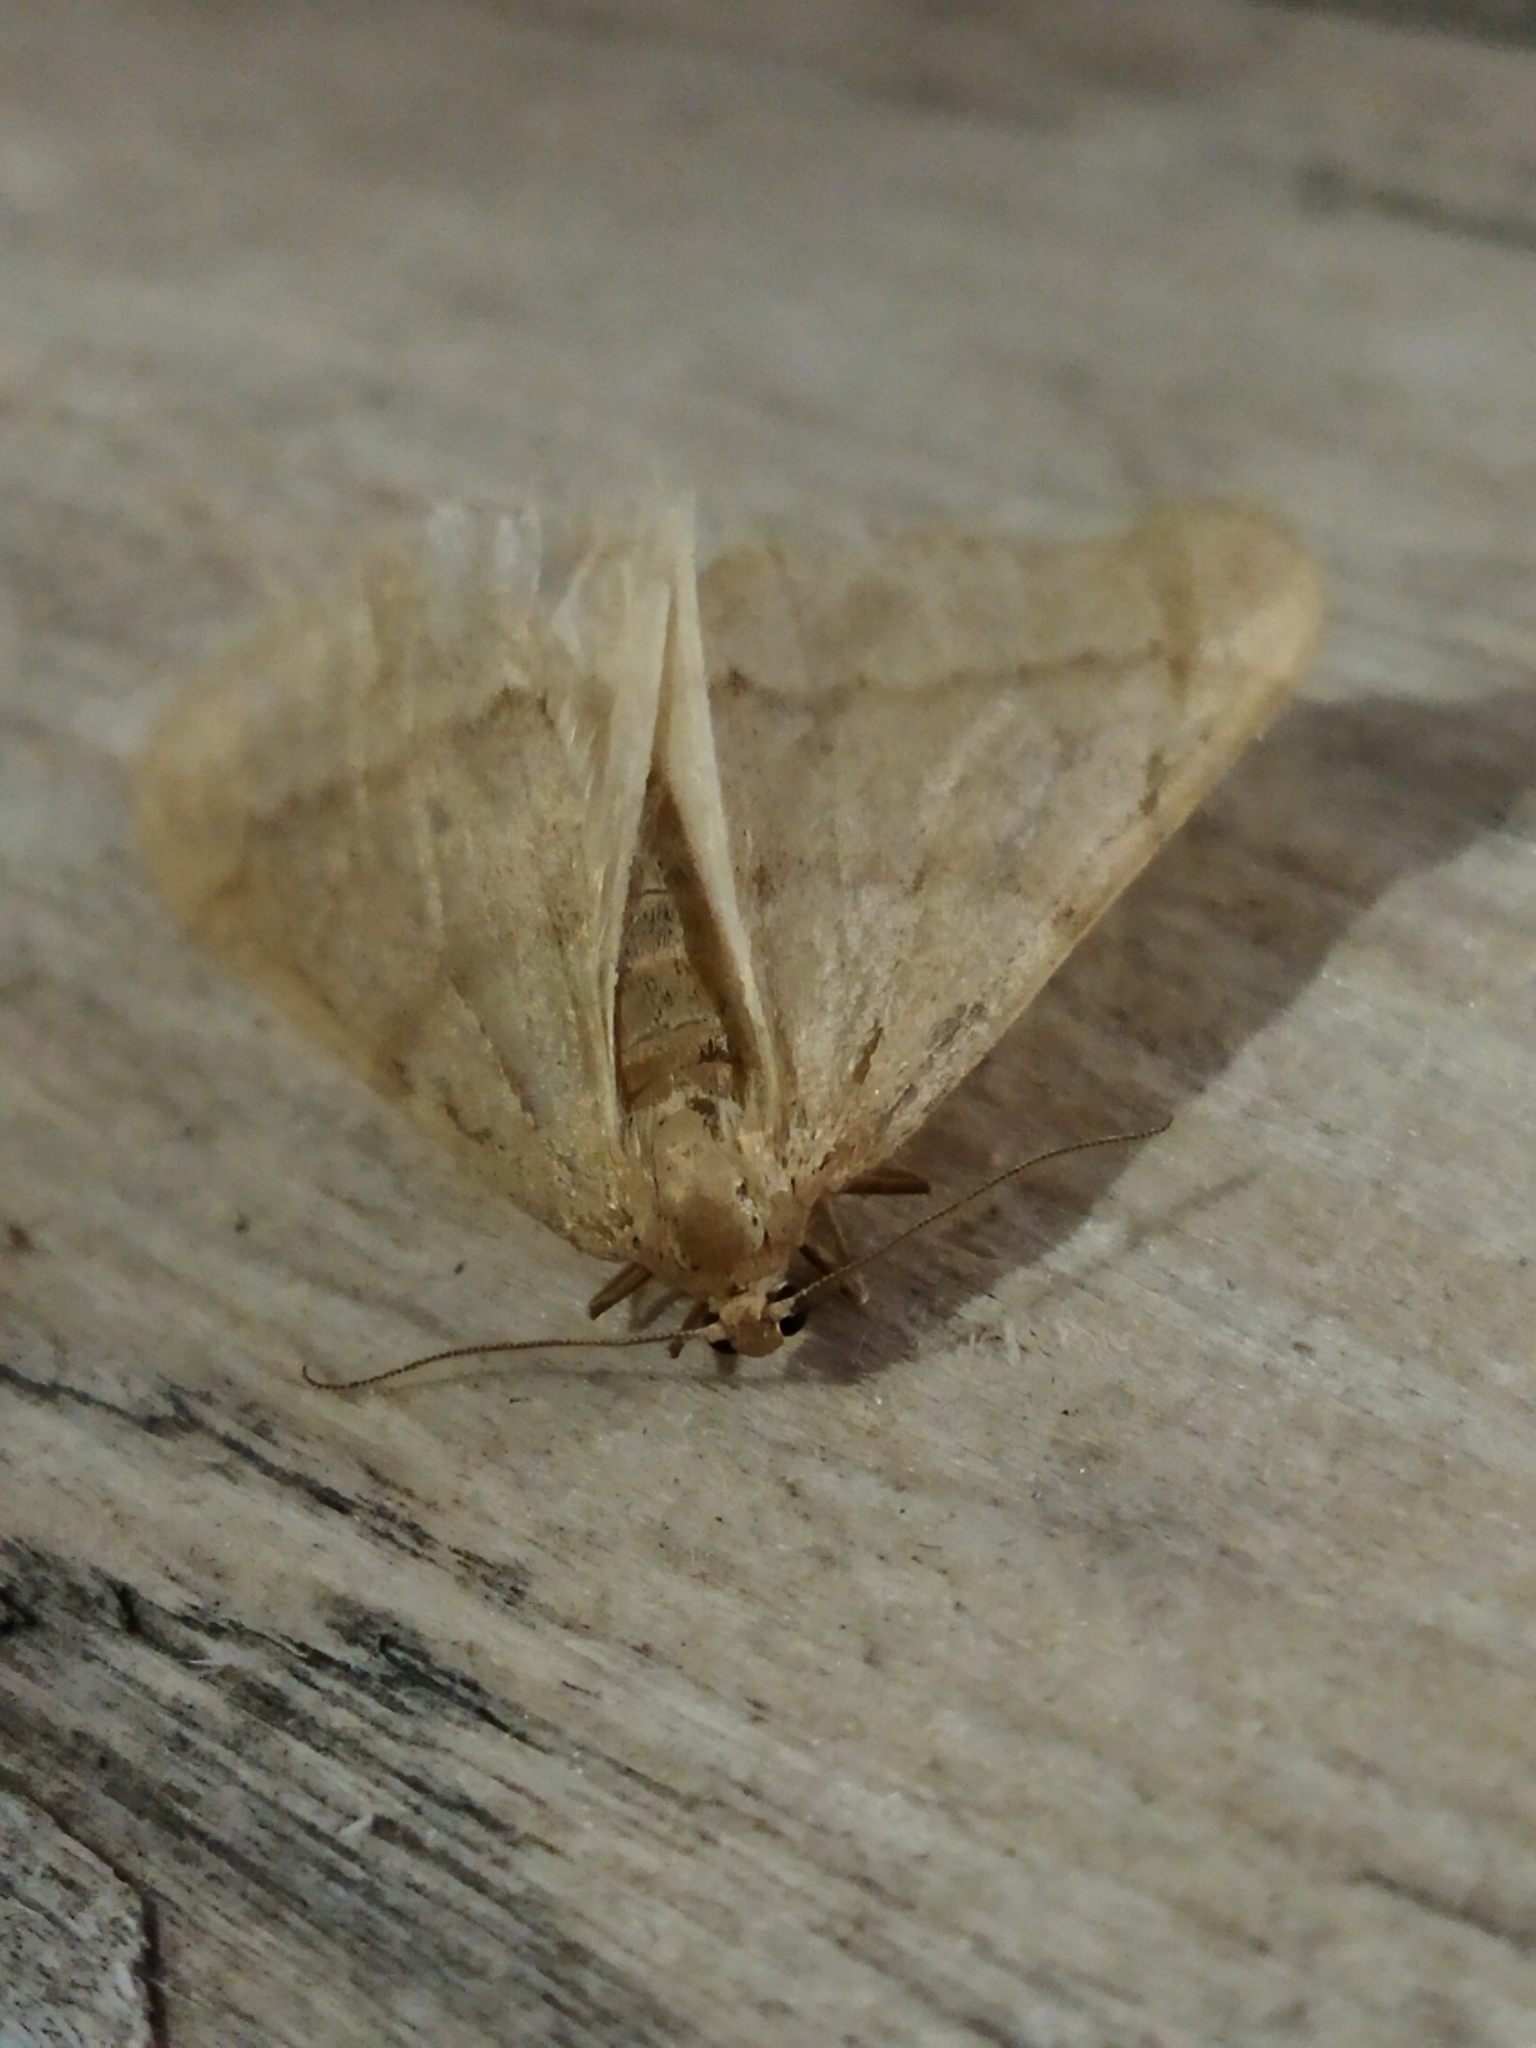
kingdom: Animalia
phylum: Arthropoda
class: Insecta
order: Lepidoptera
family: Geometridae
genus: Alsophila
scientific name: Alsophila aceraria
